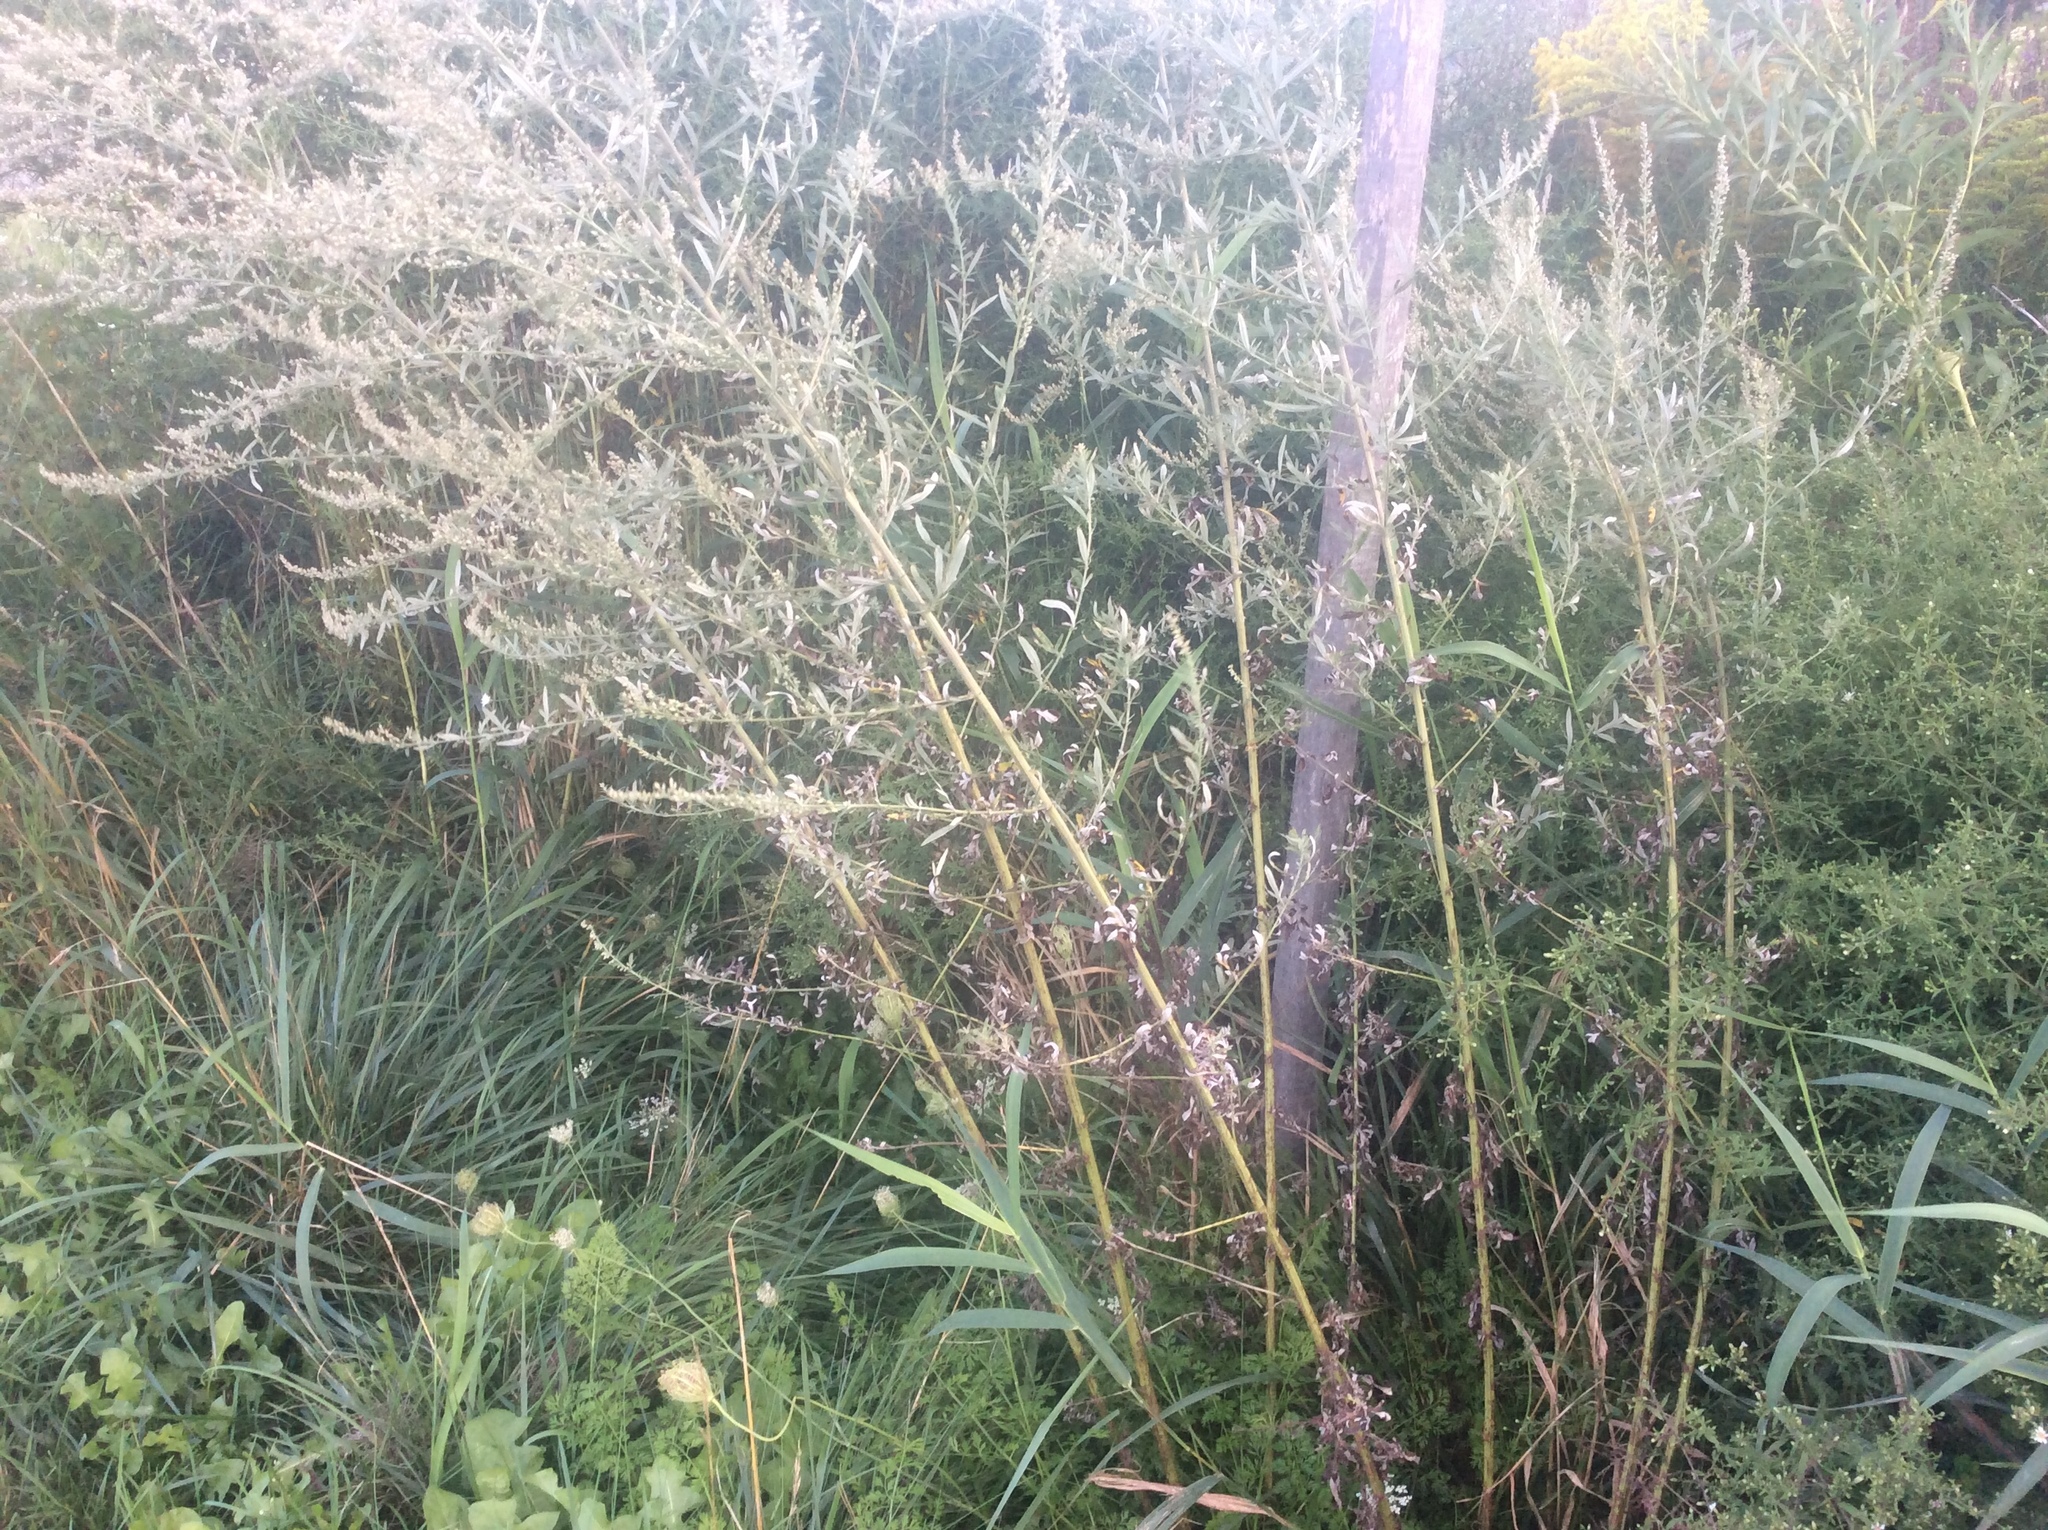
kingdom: Plantae
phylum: Tracheophyta
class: Magnoliopsida
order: Asterales
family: Asteraceae
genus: Artemisia
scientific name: Artemisia vulgaris
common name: Mugwort
